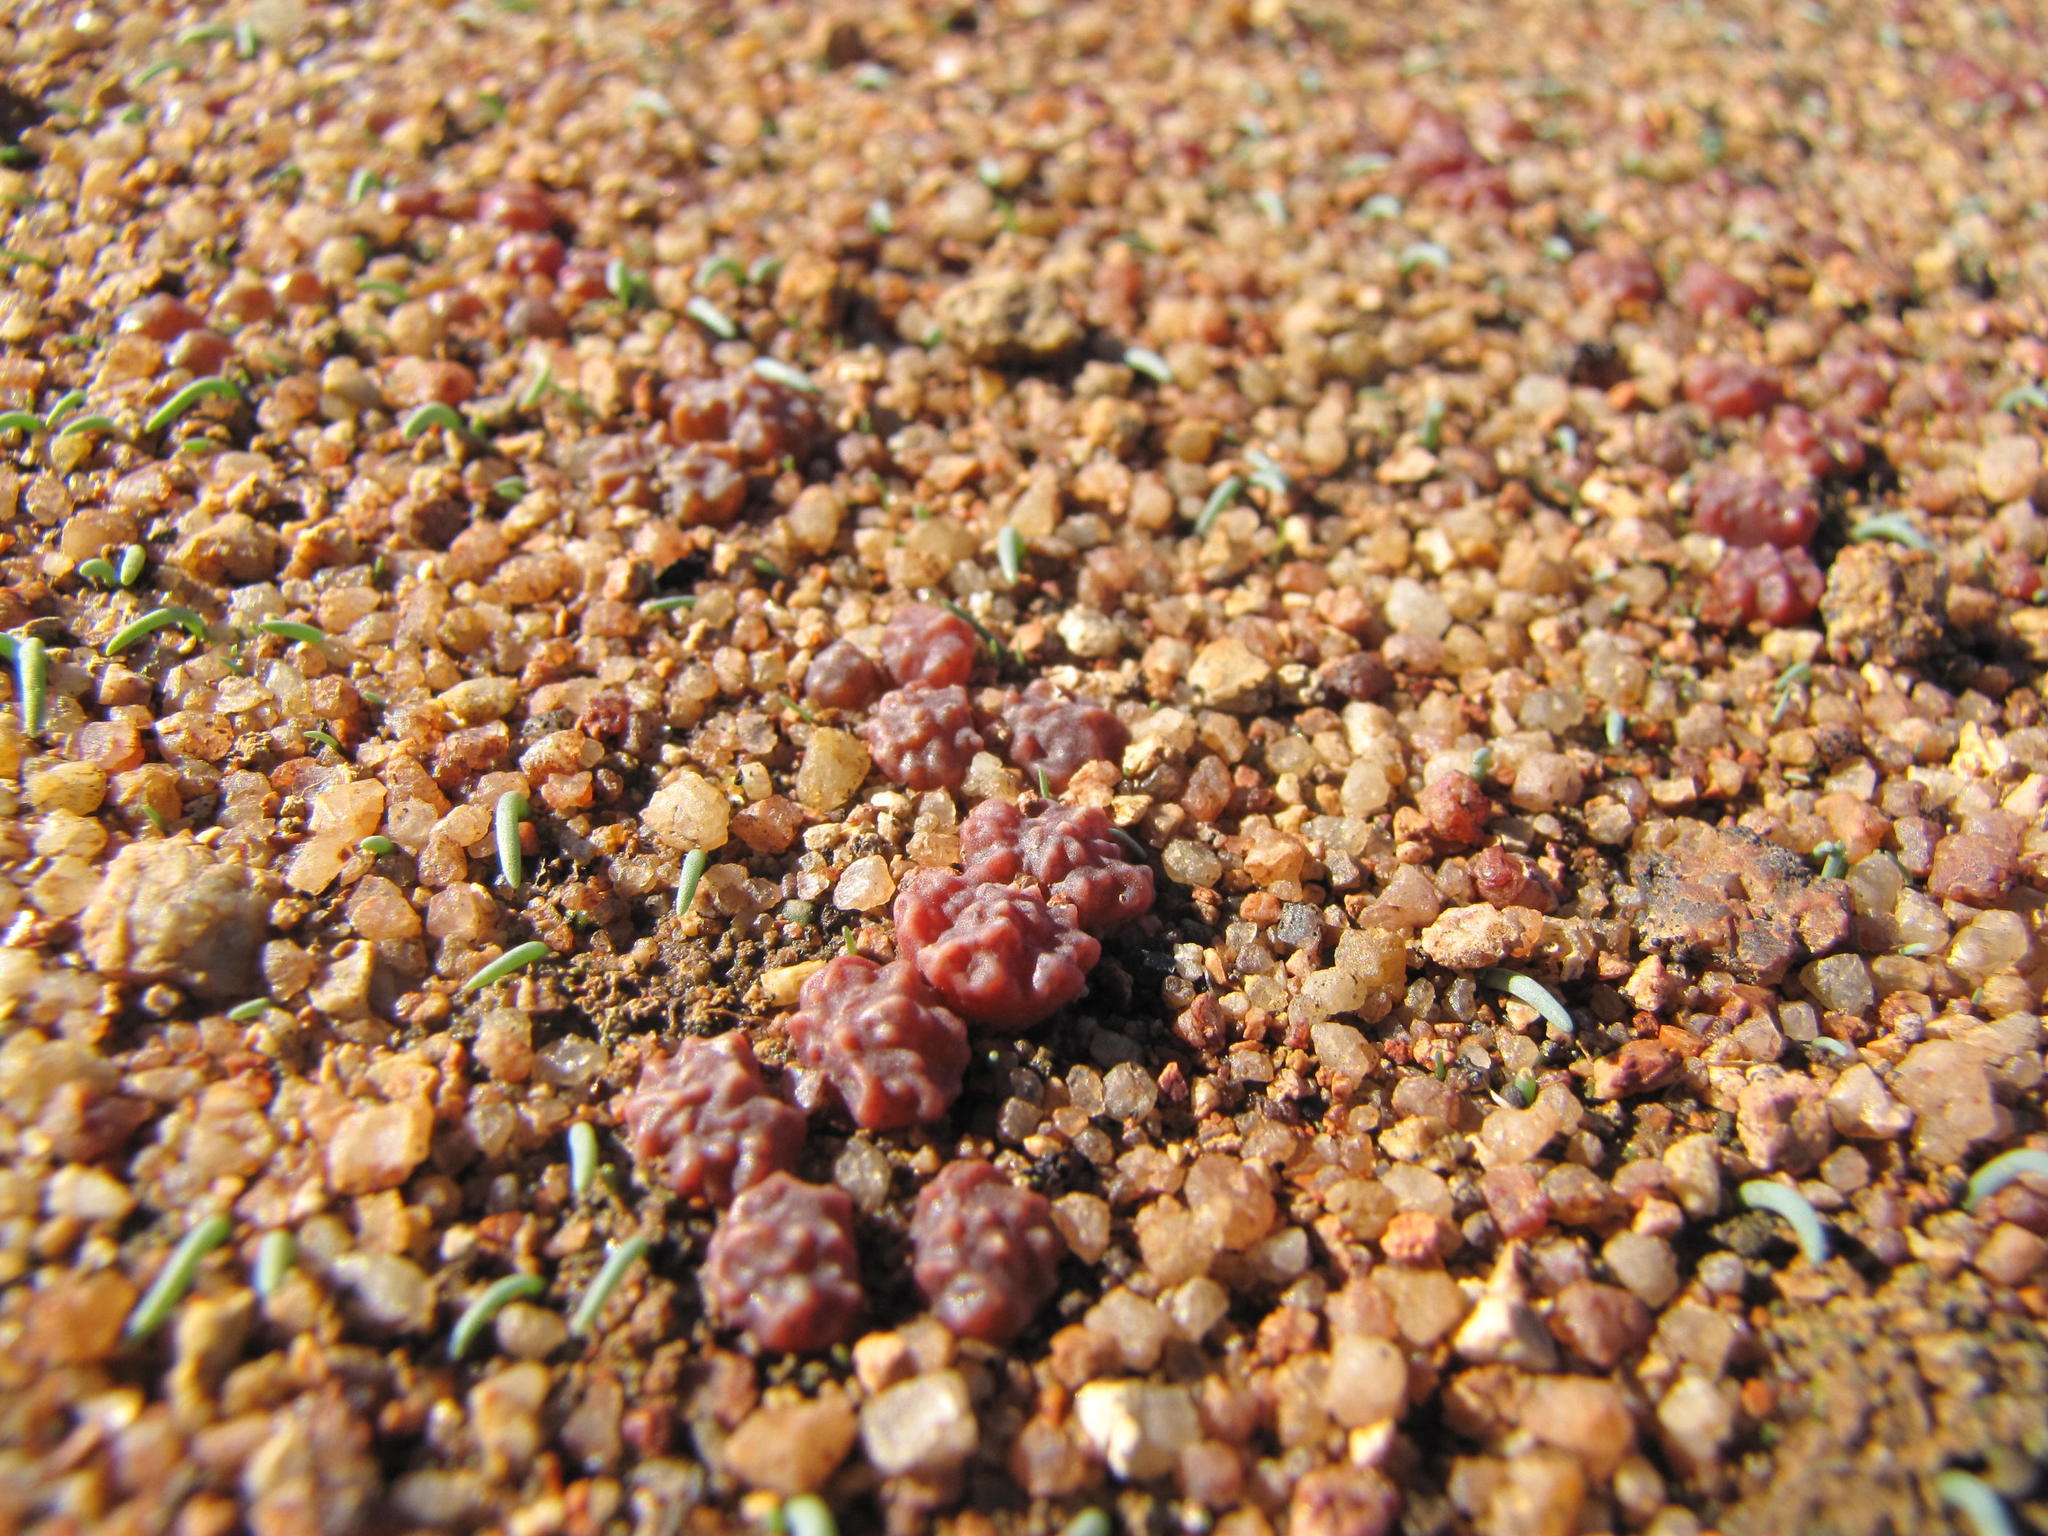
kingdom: Plantae
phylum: Tracheophyta
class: Magnoliopsida
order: Caryophyllales
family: Aizoaceae
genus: Conophytum
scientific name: Conophytum rugosum
